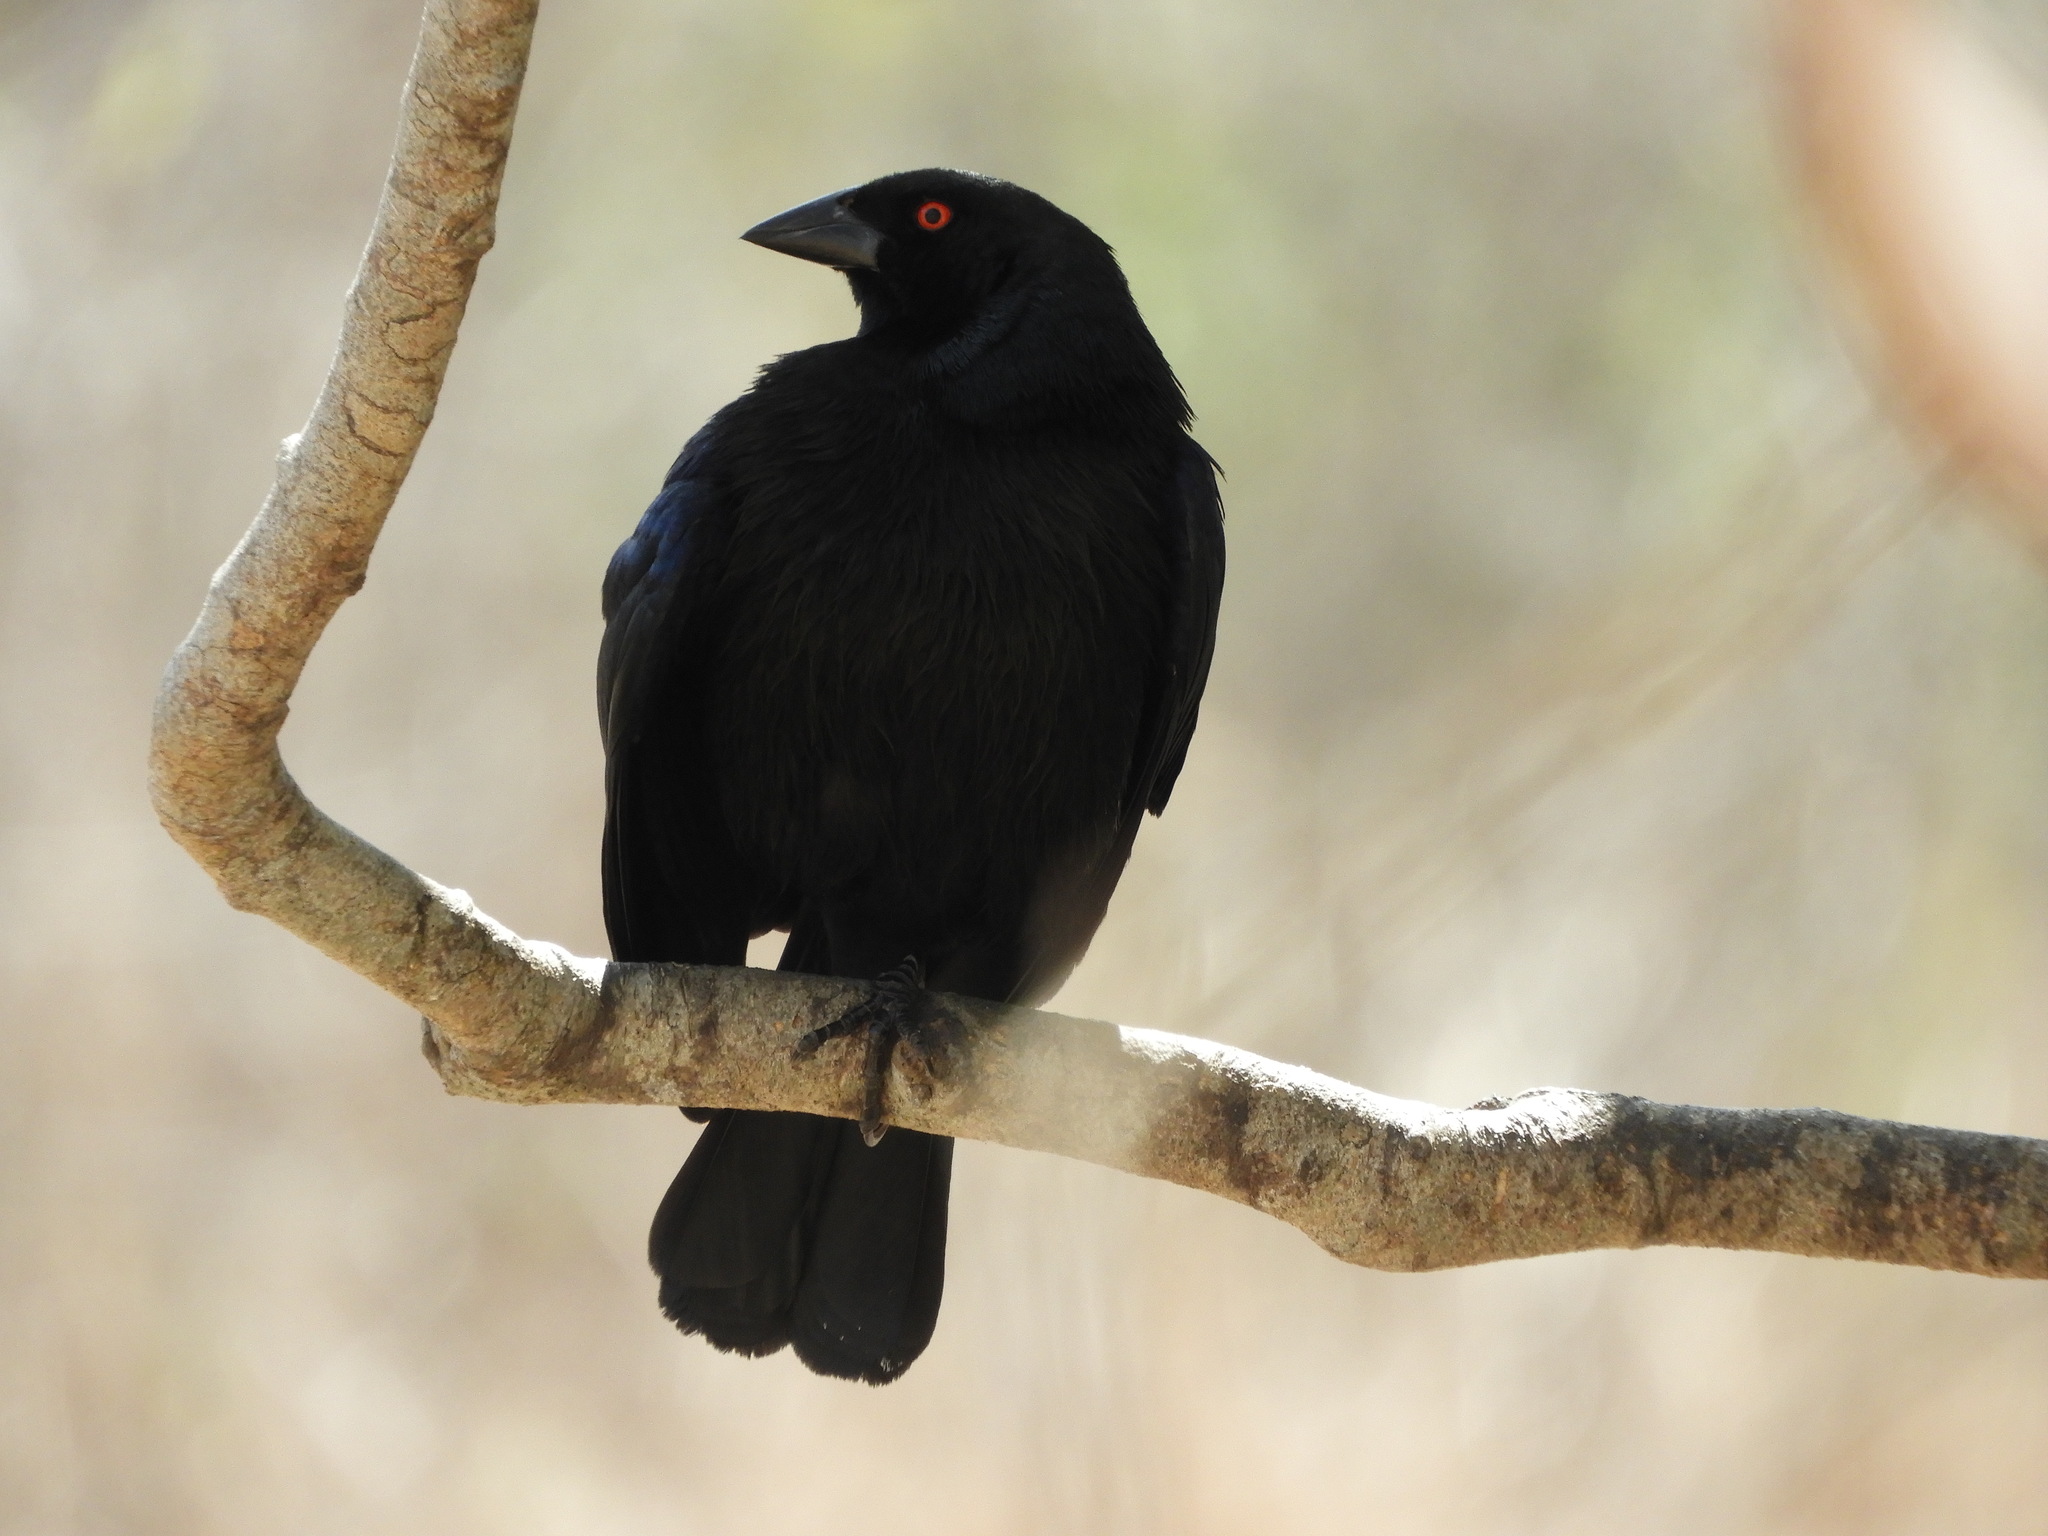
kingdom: Animalia
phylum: Chordata
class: Aves
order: Passeriformes
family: Icteridae
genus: Molothrus
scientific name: Molothrus aeneus
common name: Bronzed cowbird
